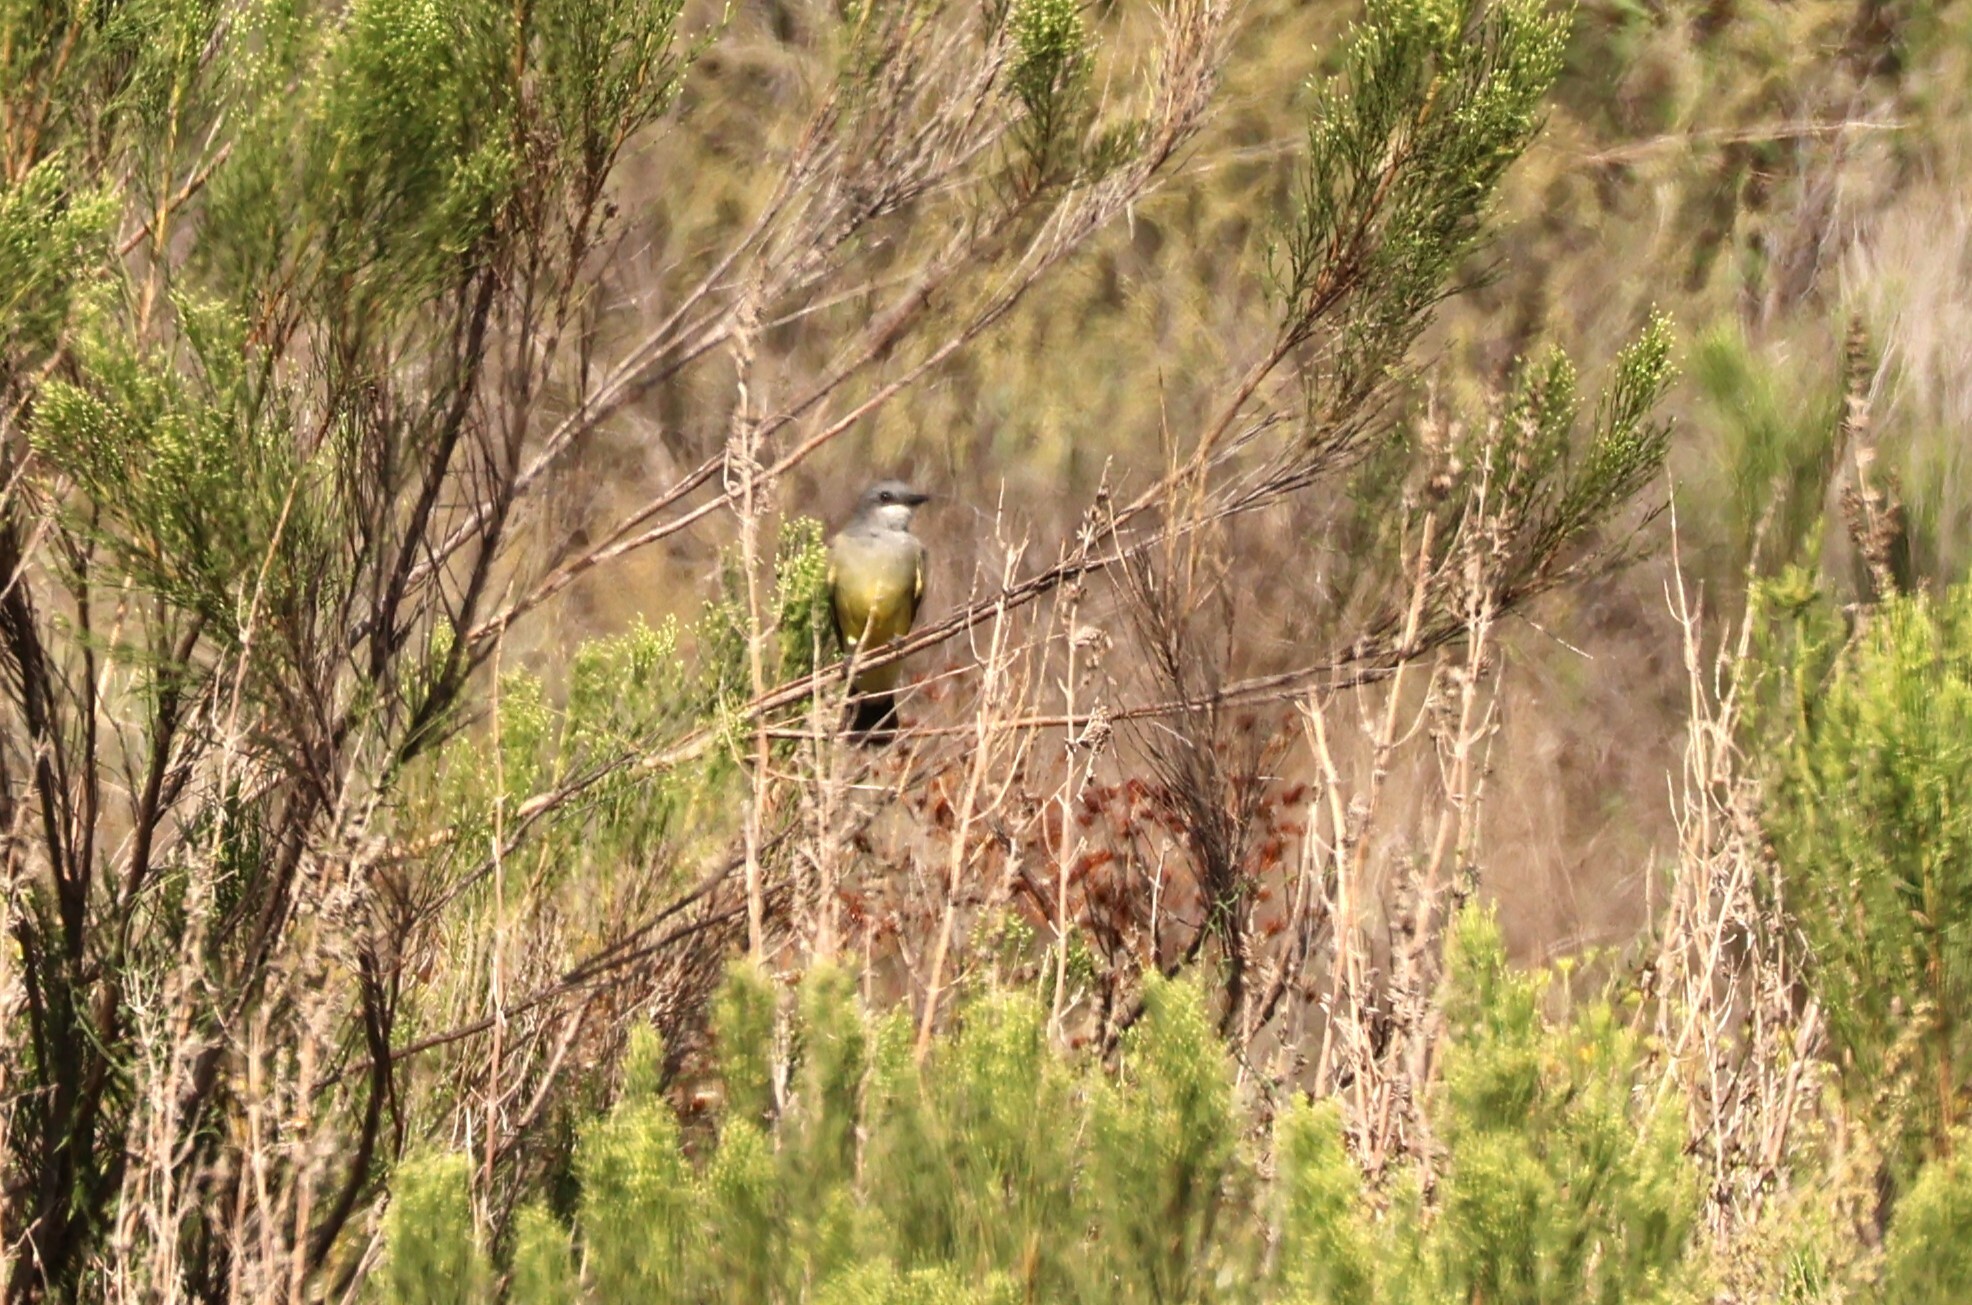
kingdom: Animalia
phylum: Chordata
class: Aves
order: Passeriformes
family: Tyrannidae
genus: Tyrannus
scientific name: Tyrannus vociferans
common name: Cassin's kingbird
